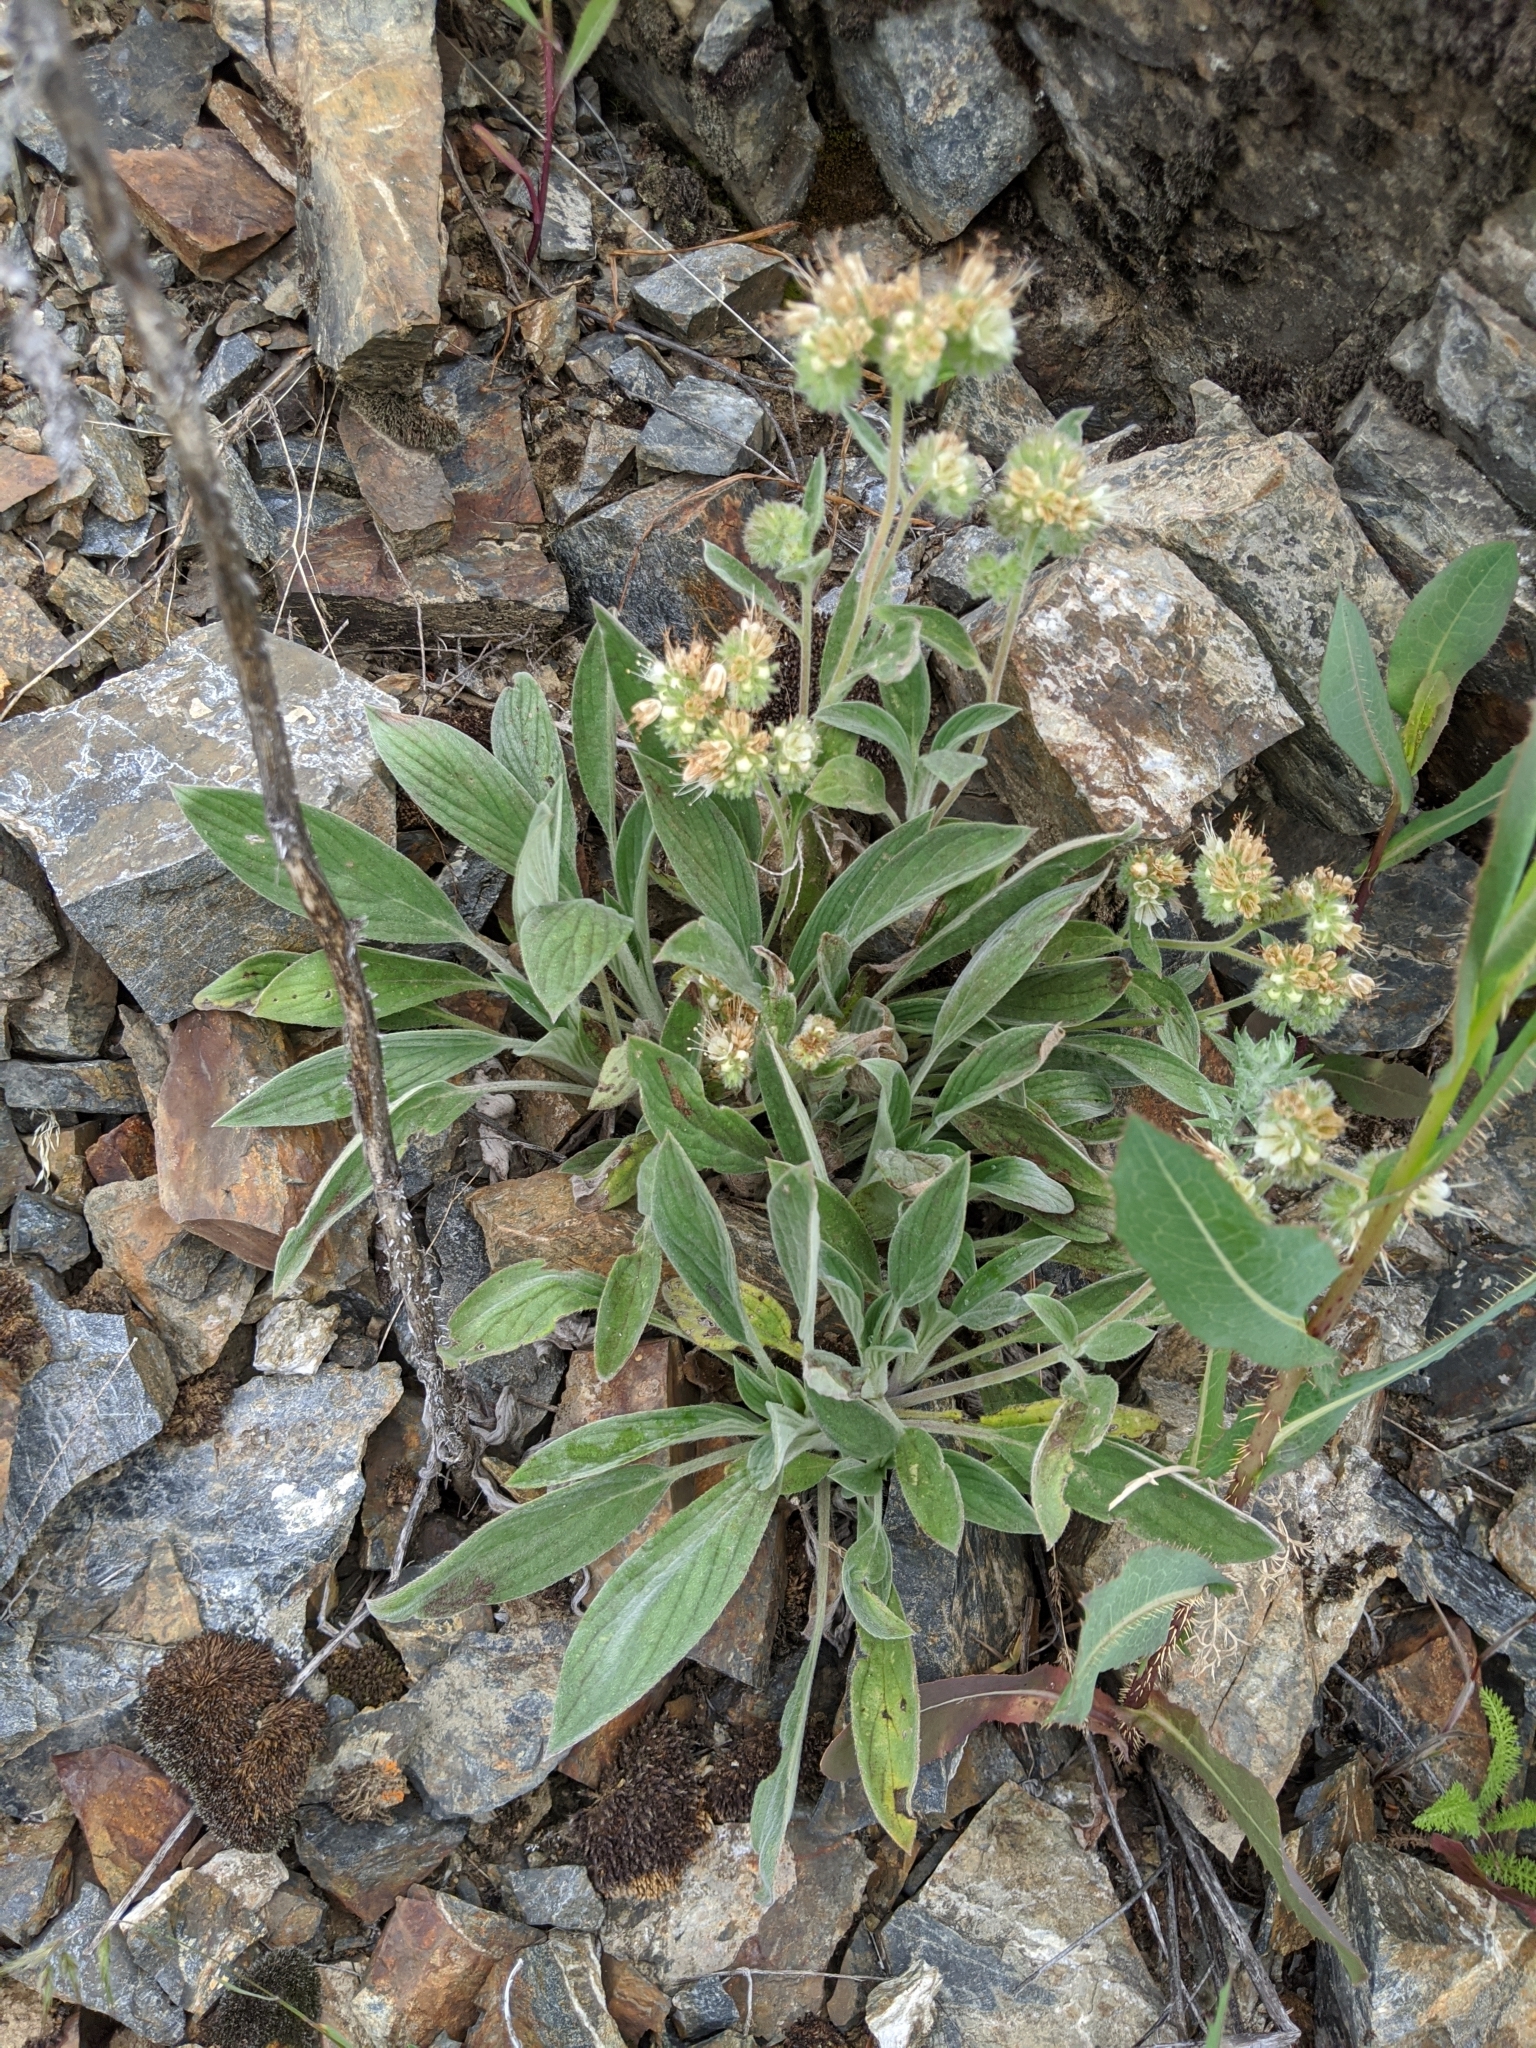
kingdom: Plantae
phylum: Tracheophyta
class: Magnoliopsida
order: Boraginales
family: Hydrophyllaceae
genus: Phacelia
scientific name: Phacelia hastata
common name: Silver-leaved phacelia
